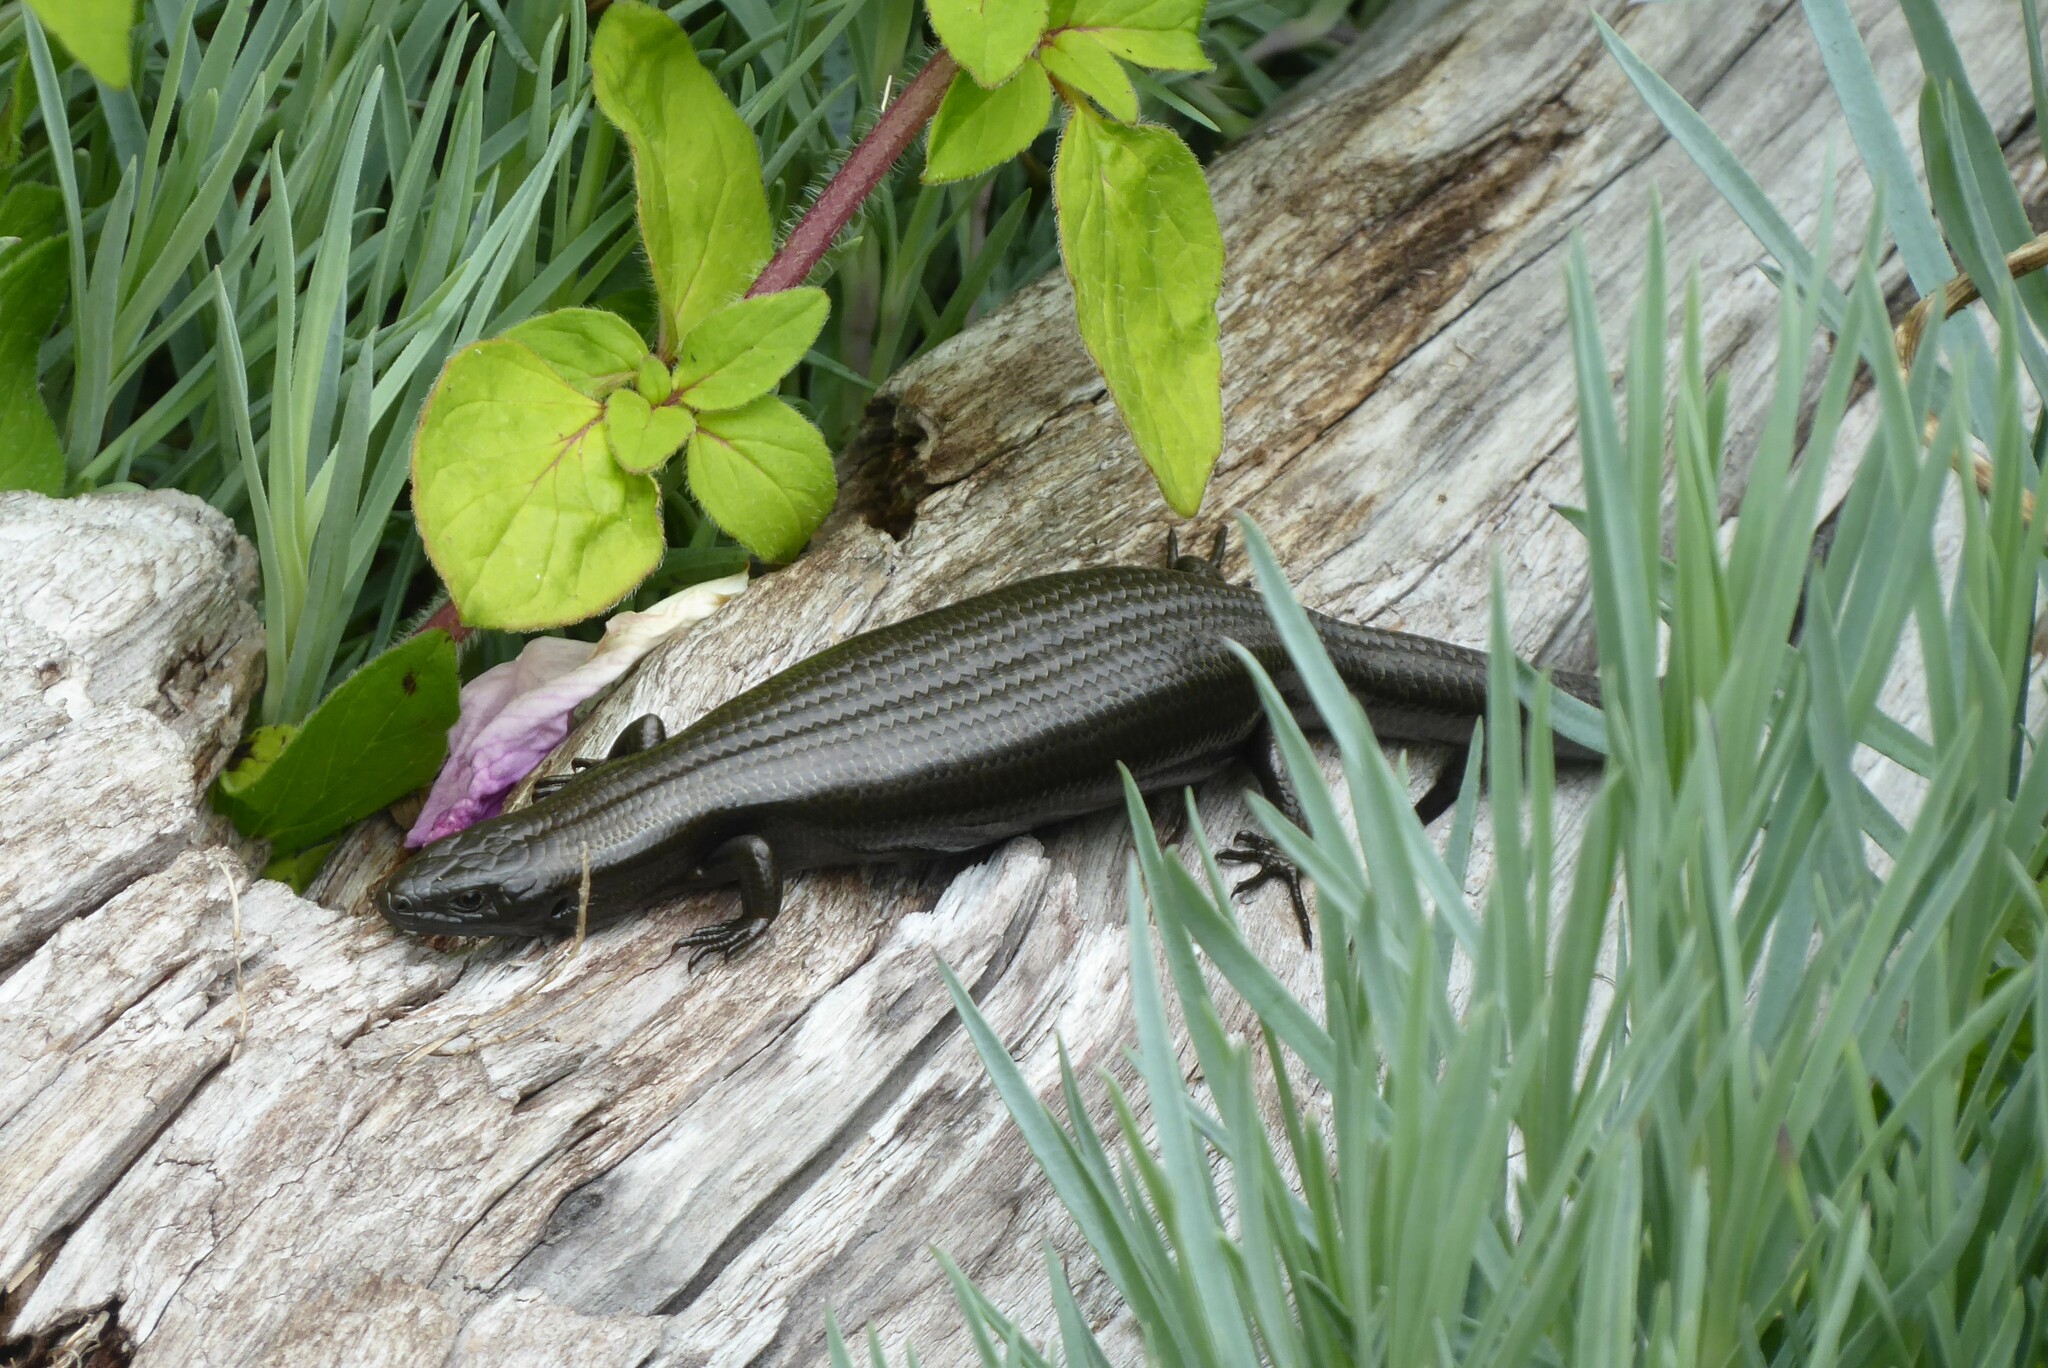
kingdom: Animalia
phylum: Chordata
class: Squamata
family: Scincidae
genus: Oligosoma
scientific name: Oligosoma polychroma
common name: Common new zealand skink
